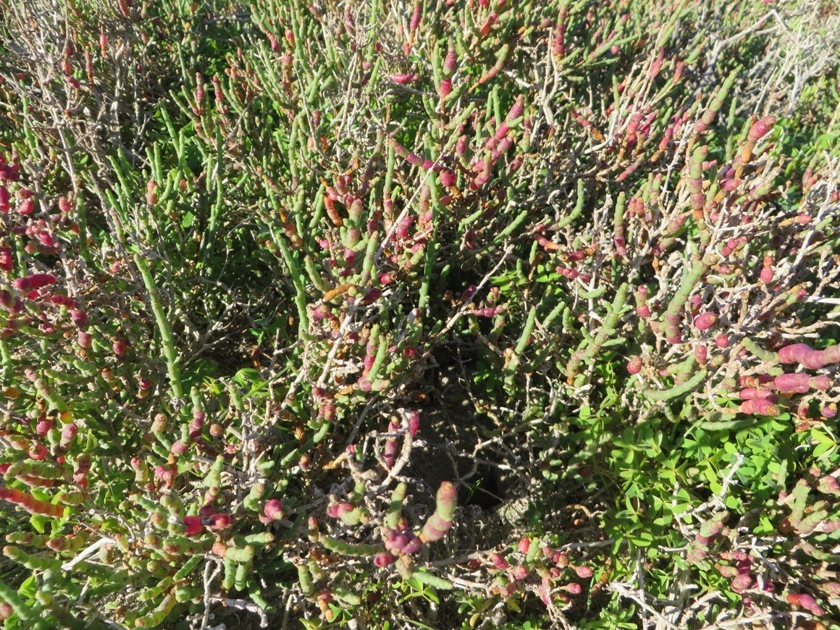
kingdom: Plantae
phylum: Tracheophyta
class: Magnoliopsida
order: Caryophyllales
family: Amaranthaceae
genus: Salicornia
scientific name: Salicornia pillansii
